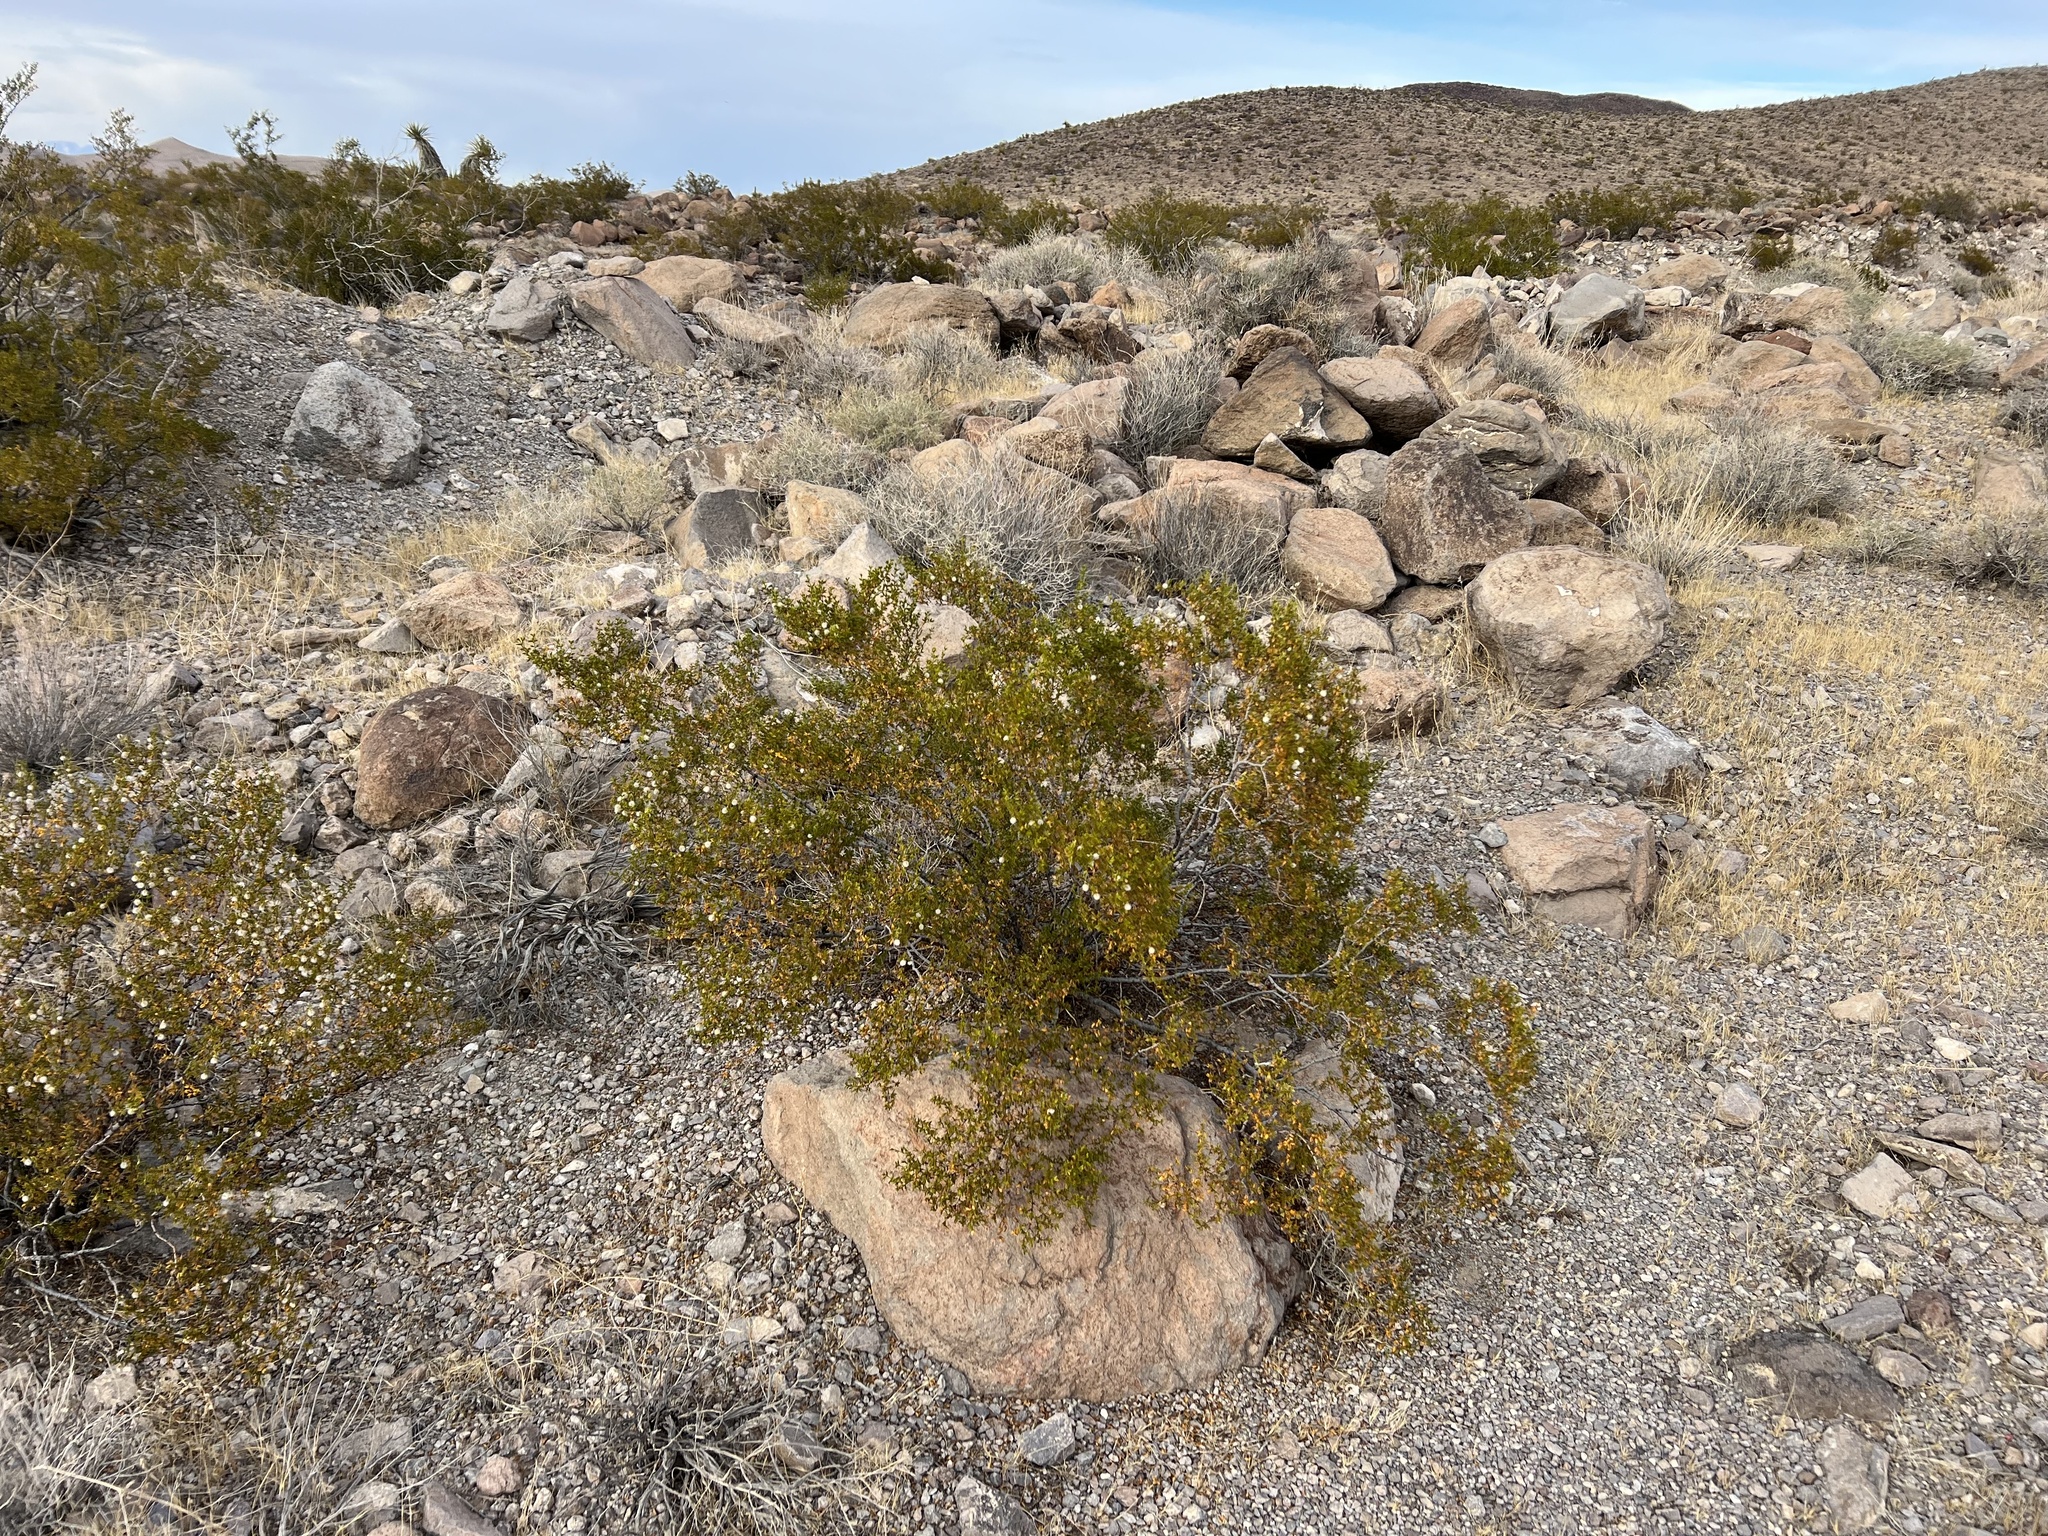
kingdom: Plantae
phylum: Tracheophyta
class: Magnoliopsida
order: Zygophyllales
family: Zygophyllaceae
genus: Larrea
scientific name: Larrea tridentata
